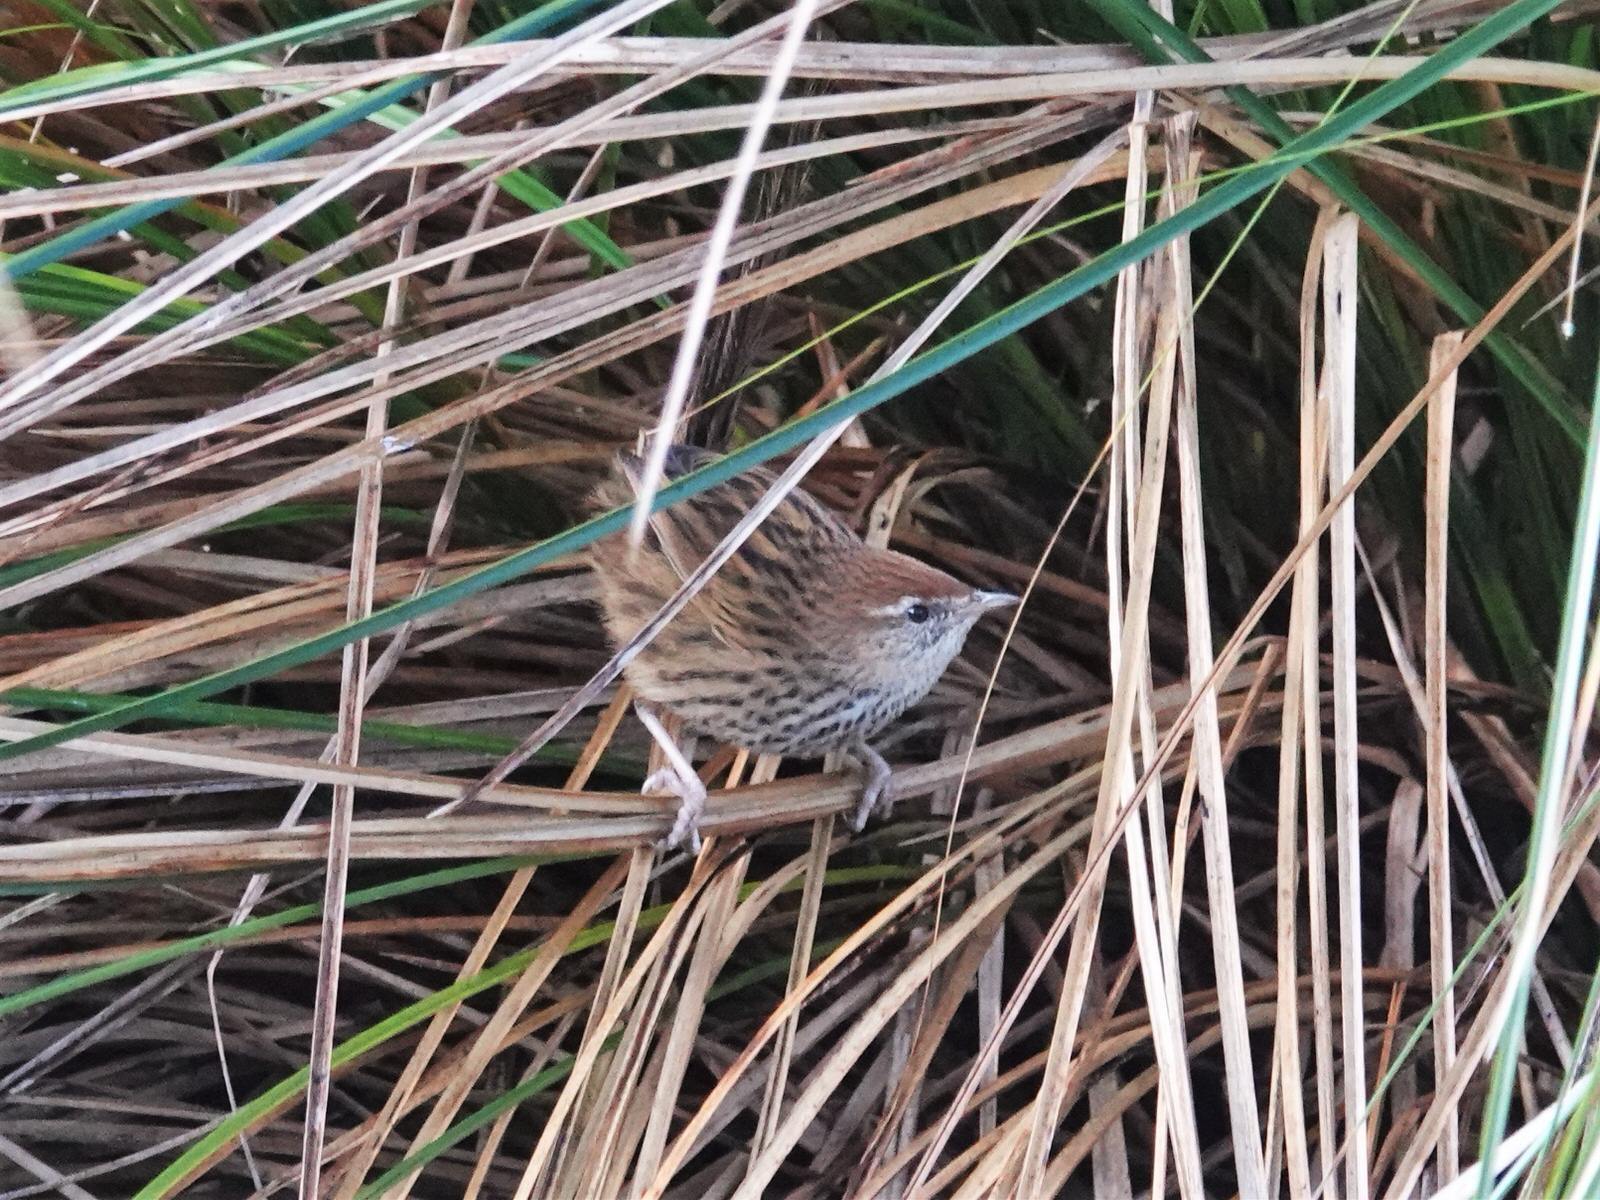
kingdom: Animalia
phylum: Chordata
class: Aves
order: Passeriformes
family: Locustellidae
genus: Megalurus
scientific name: Megalurus punctatus
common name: New zealand fernbird
